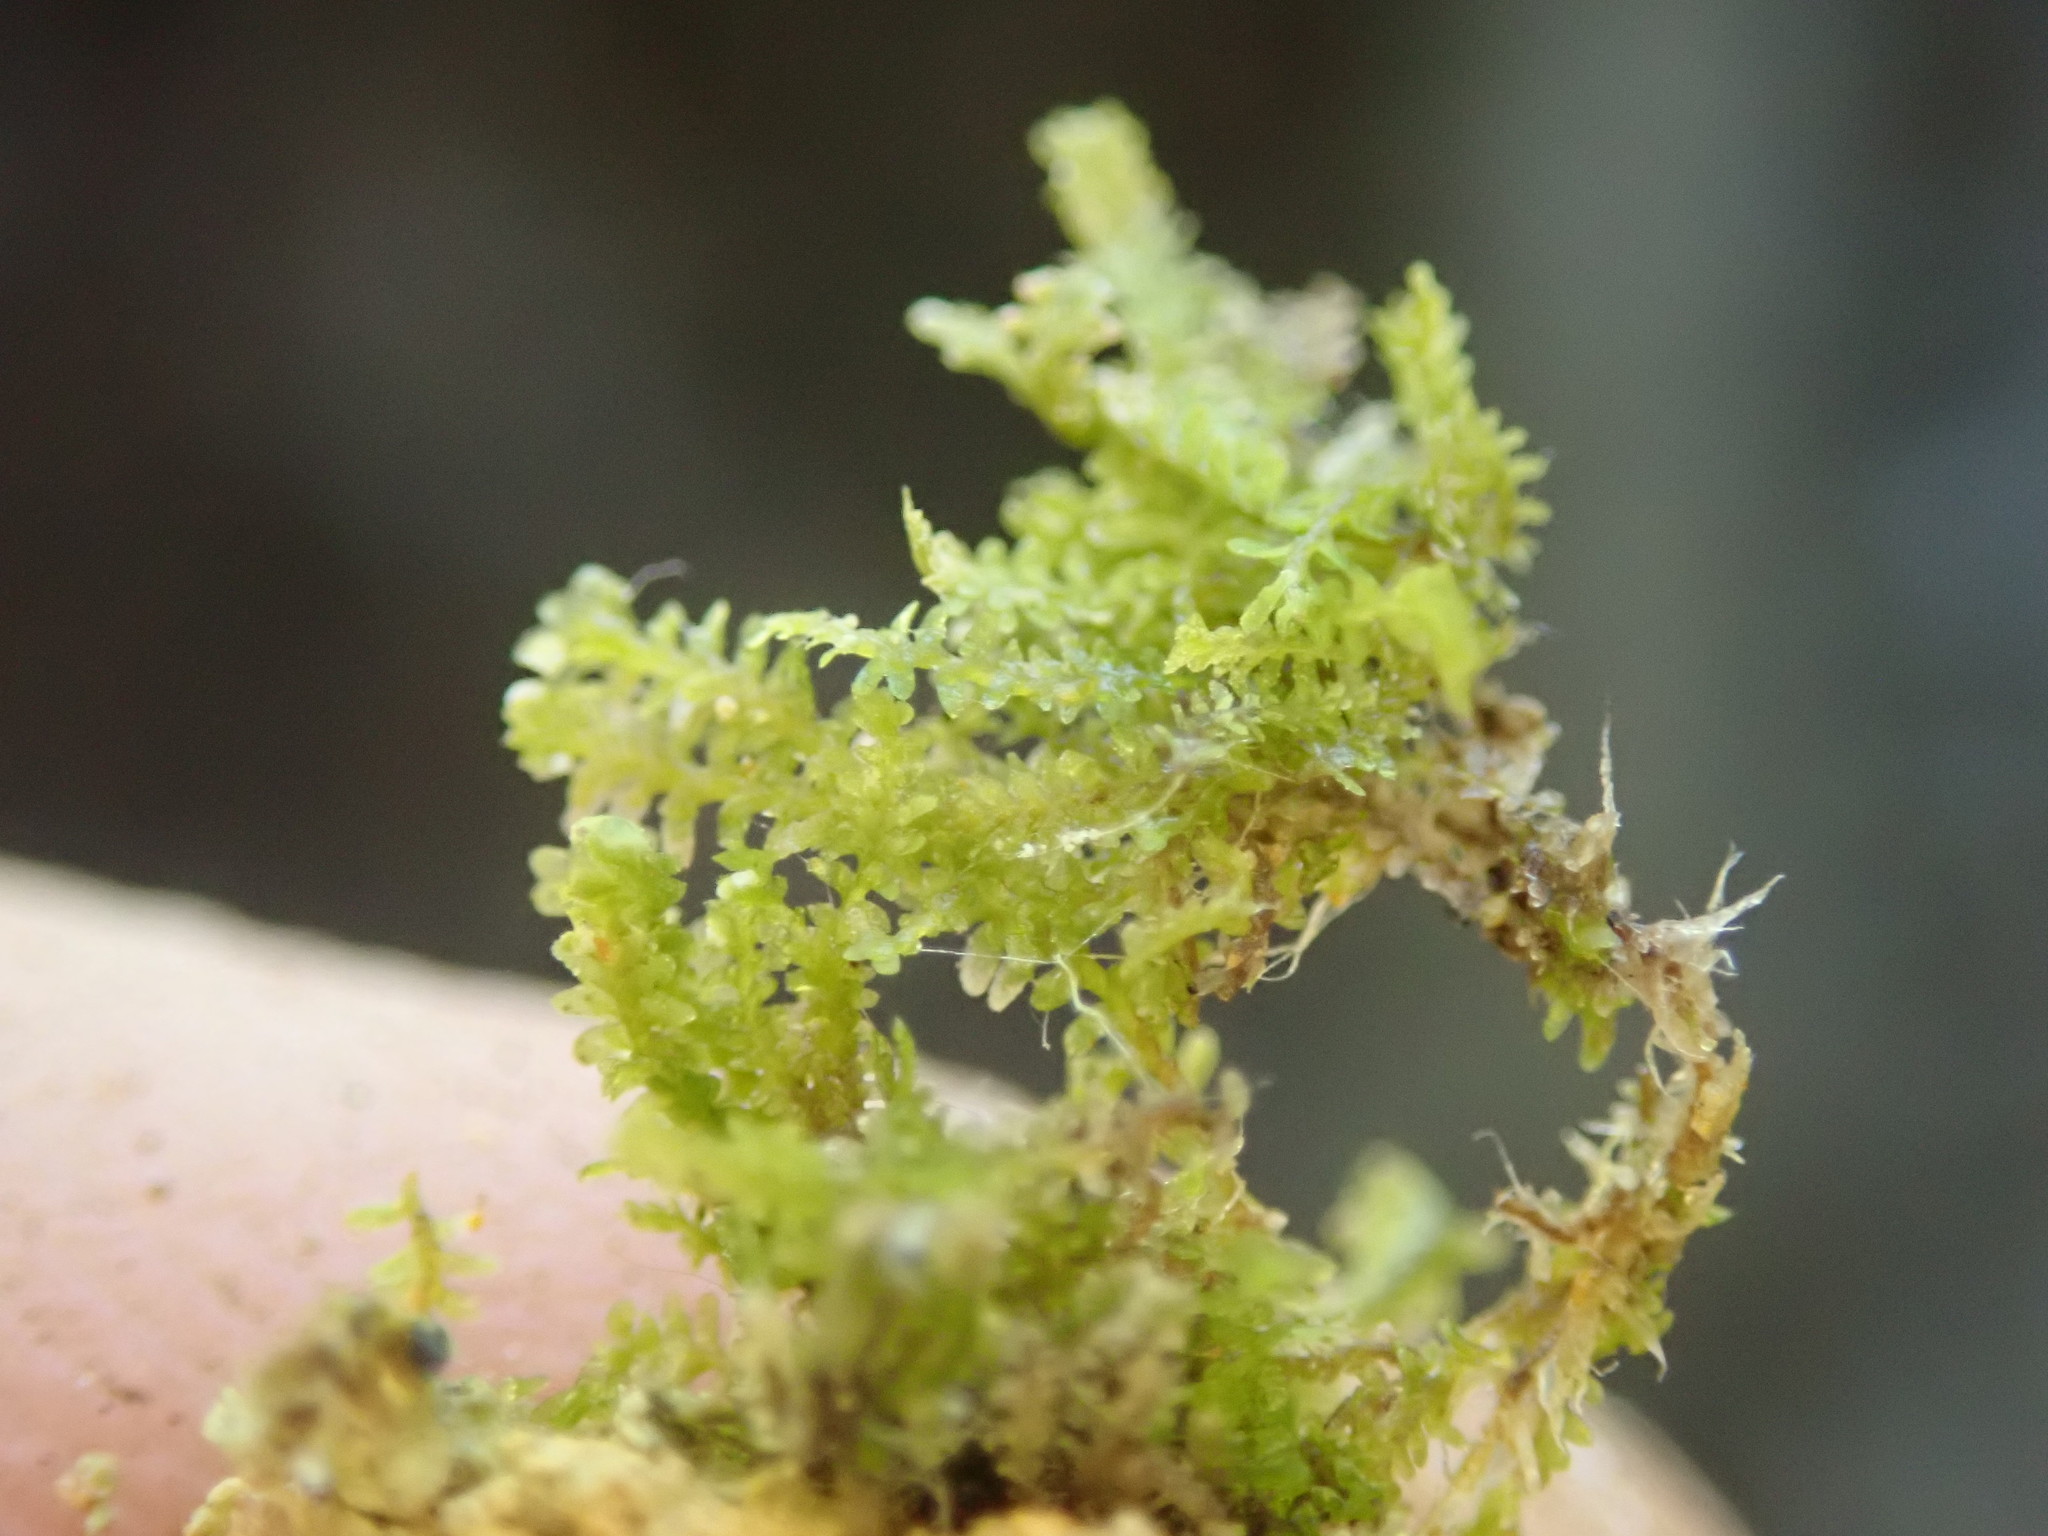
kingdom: Plantae
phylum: Marchantiophyta
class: Jungermanniopsida
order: Jungermanniales
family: Scapaniaceae
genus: Diplophyllum
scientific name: Diplophyllum taxifolium
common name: Alpine earwort
